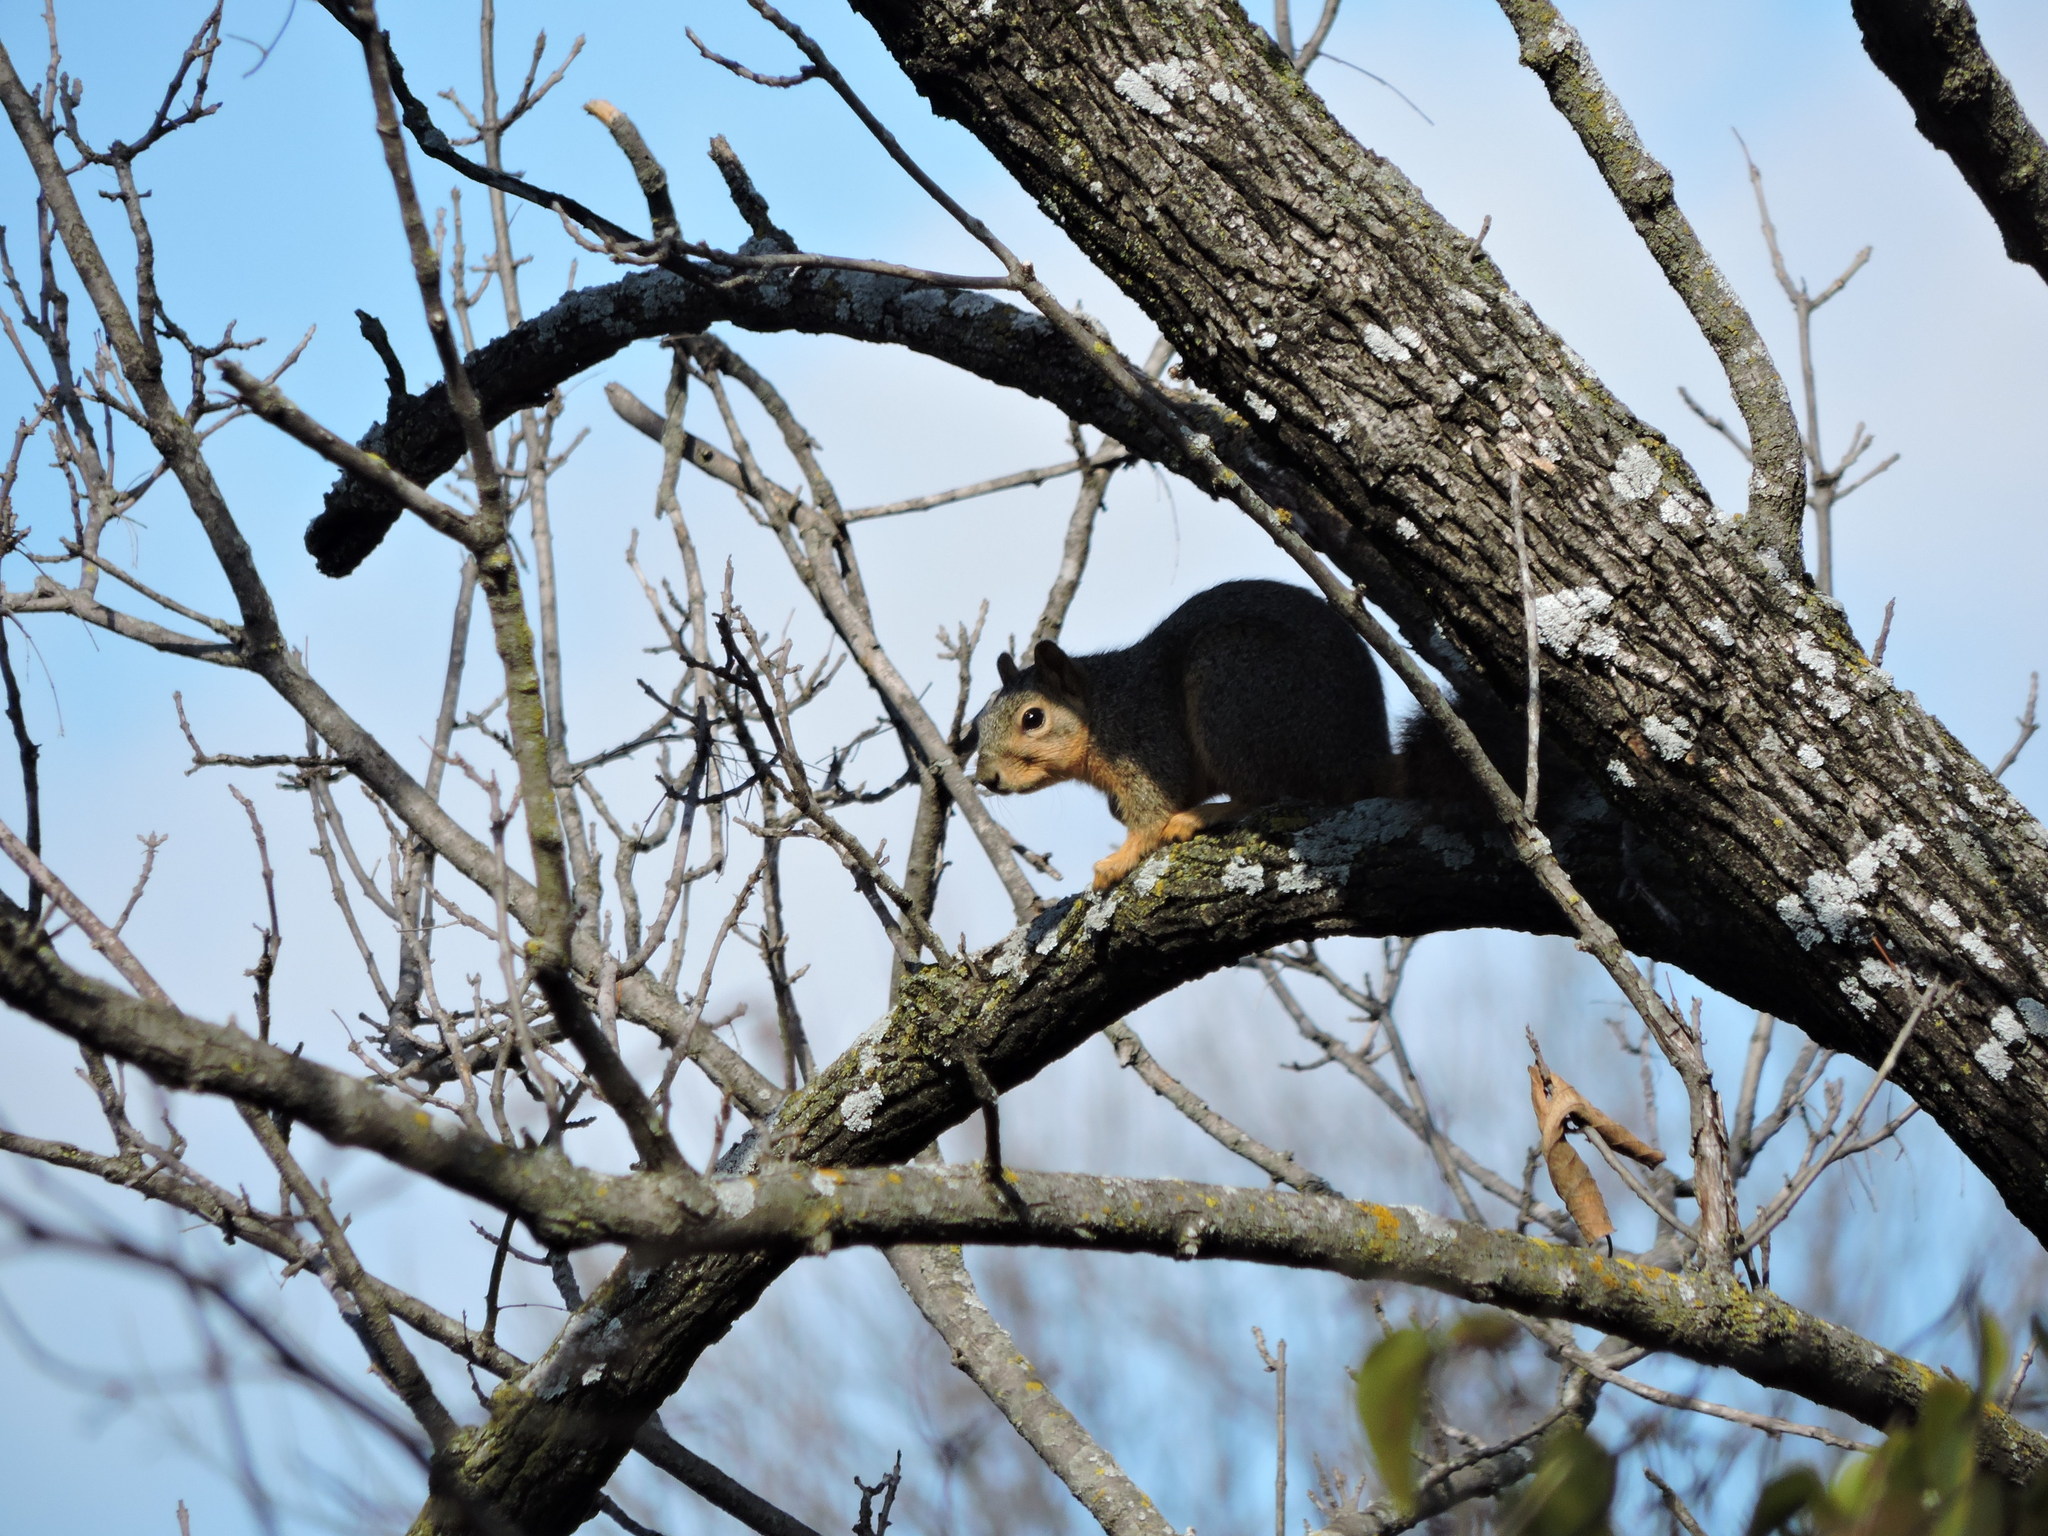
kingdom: Animalia
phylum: Chordata
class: Mammalia
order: Rodentia
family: Sciuridae
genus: Sciurus
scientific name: Sciurus niger
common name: Fox squirrel
